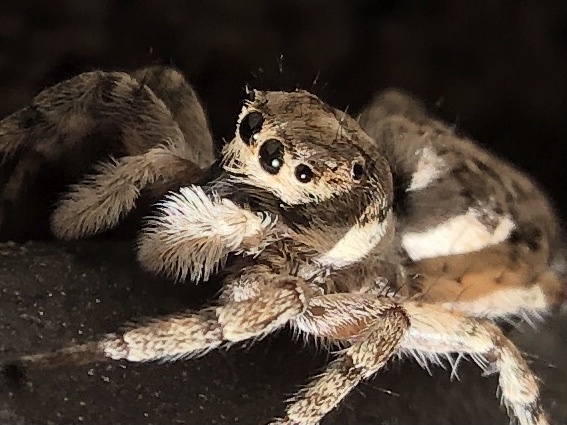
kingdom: Animalia
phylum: Arthropoda
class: Arachnida
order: Araneae
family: Salticidae
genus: Menemerus
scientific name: Menemerus semilimbatus
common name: Jumping spider
